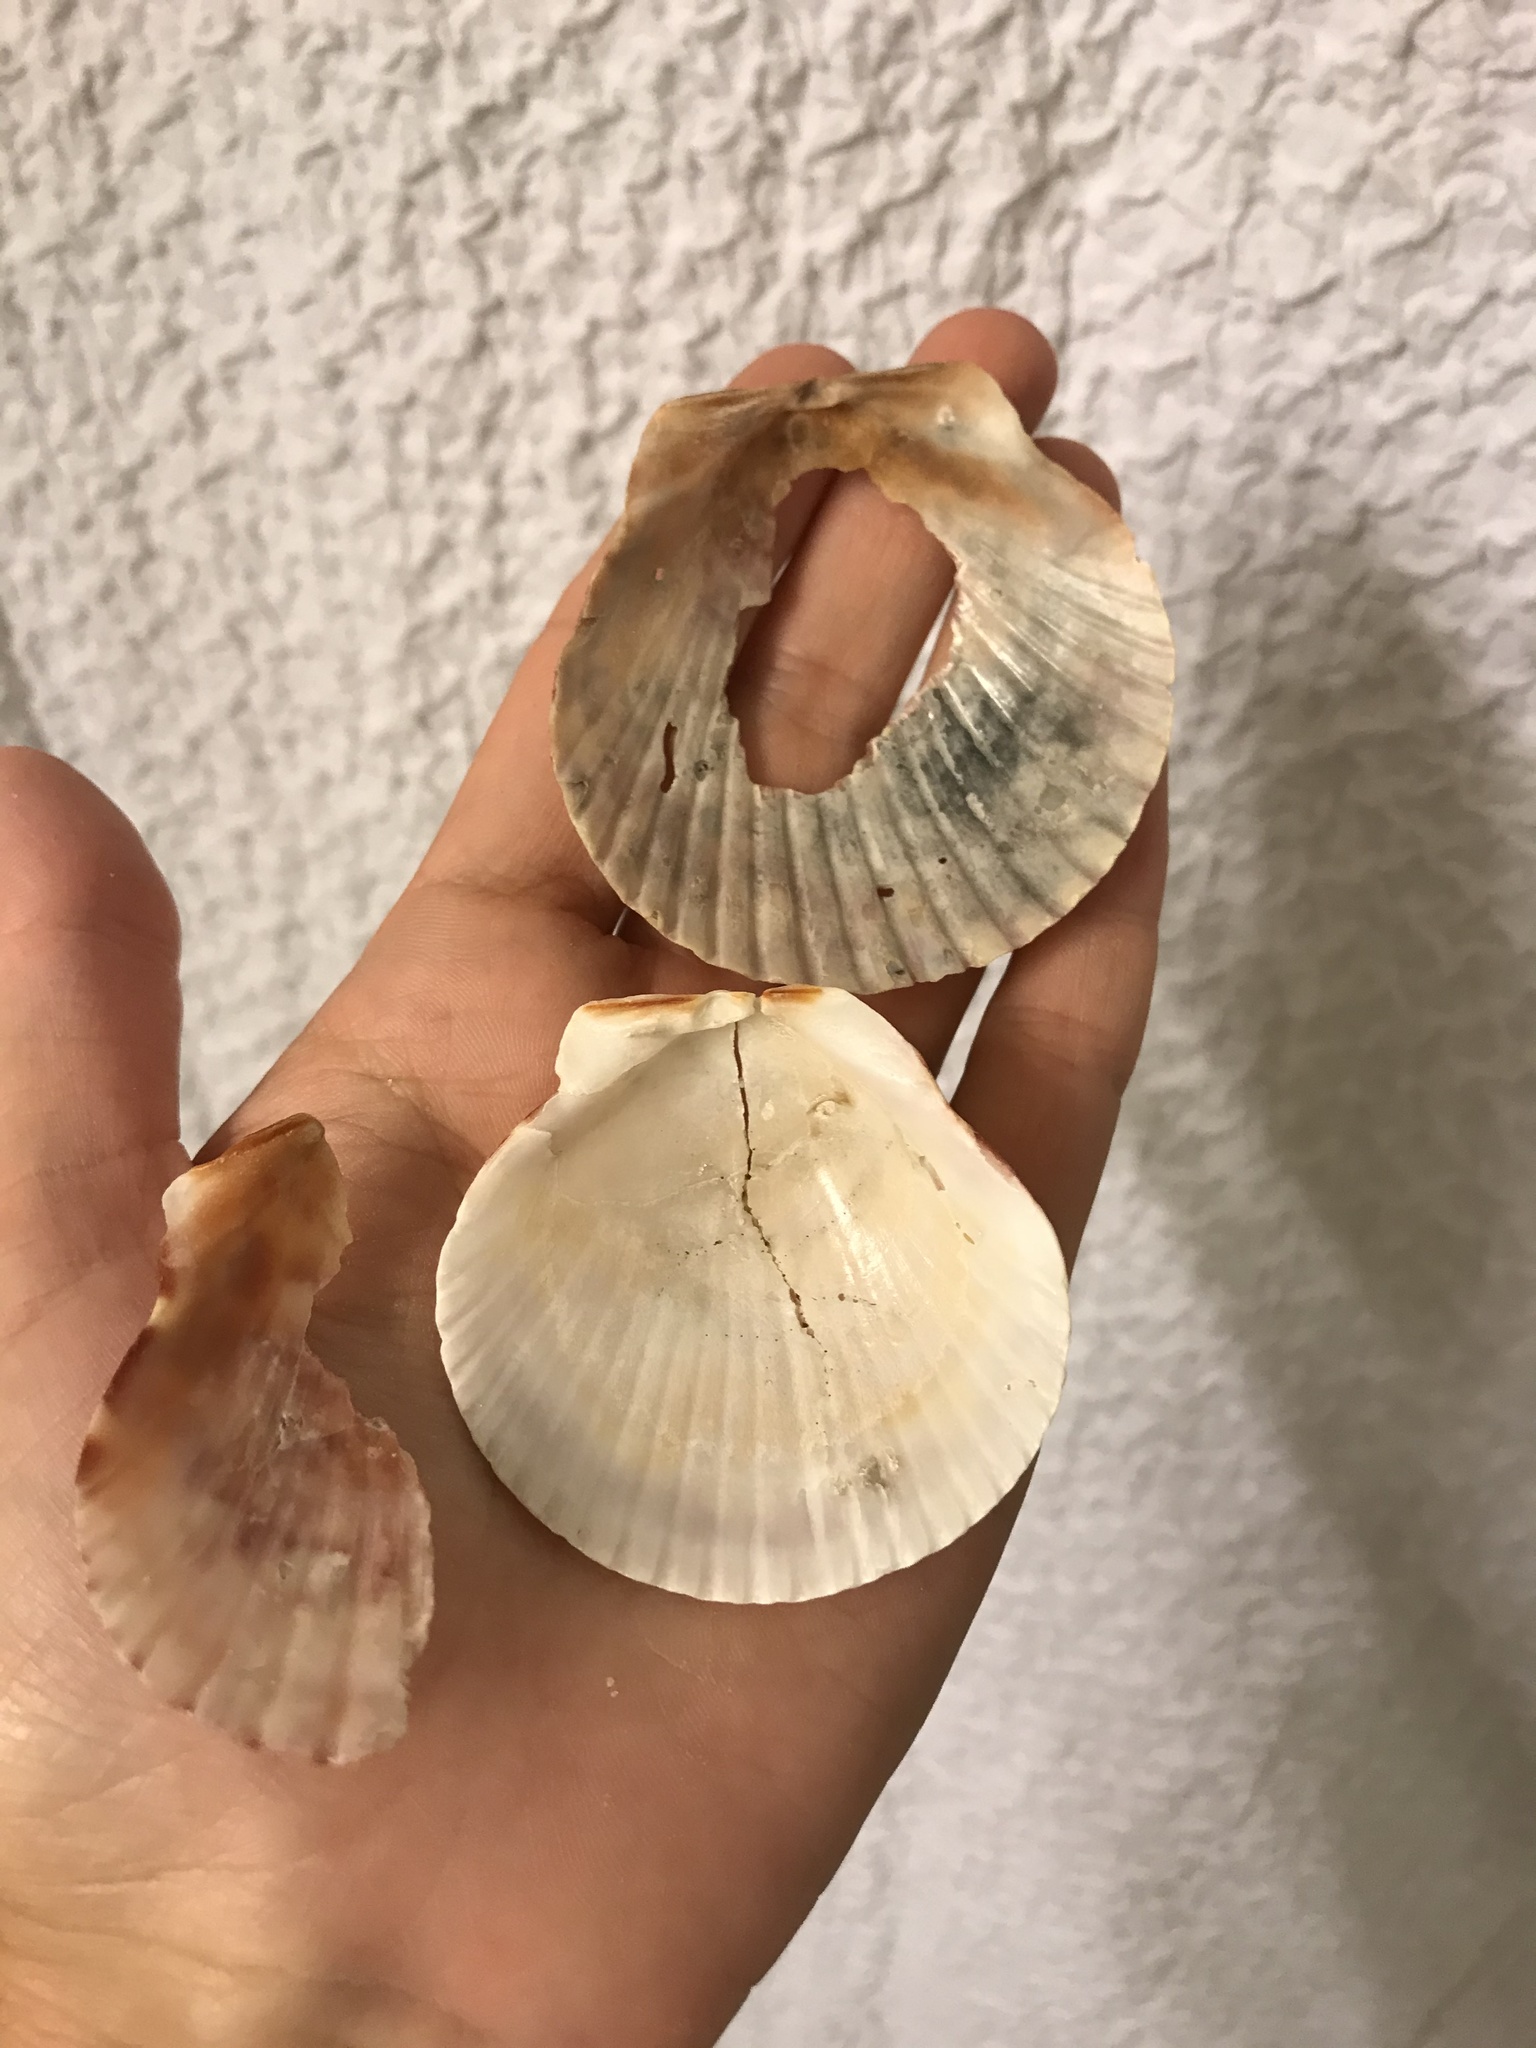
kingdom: Animalia
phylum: Mollusca
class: Bivalvia
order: Pectinida
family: Pectinidae
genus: Argopecten
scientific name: Argopecten gibbus
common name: Atlantic calico scallop
